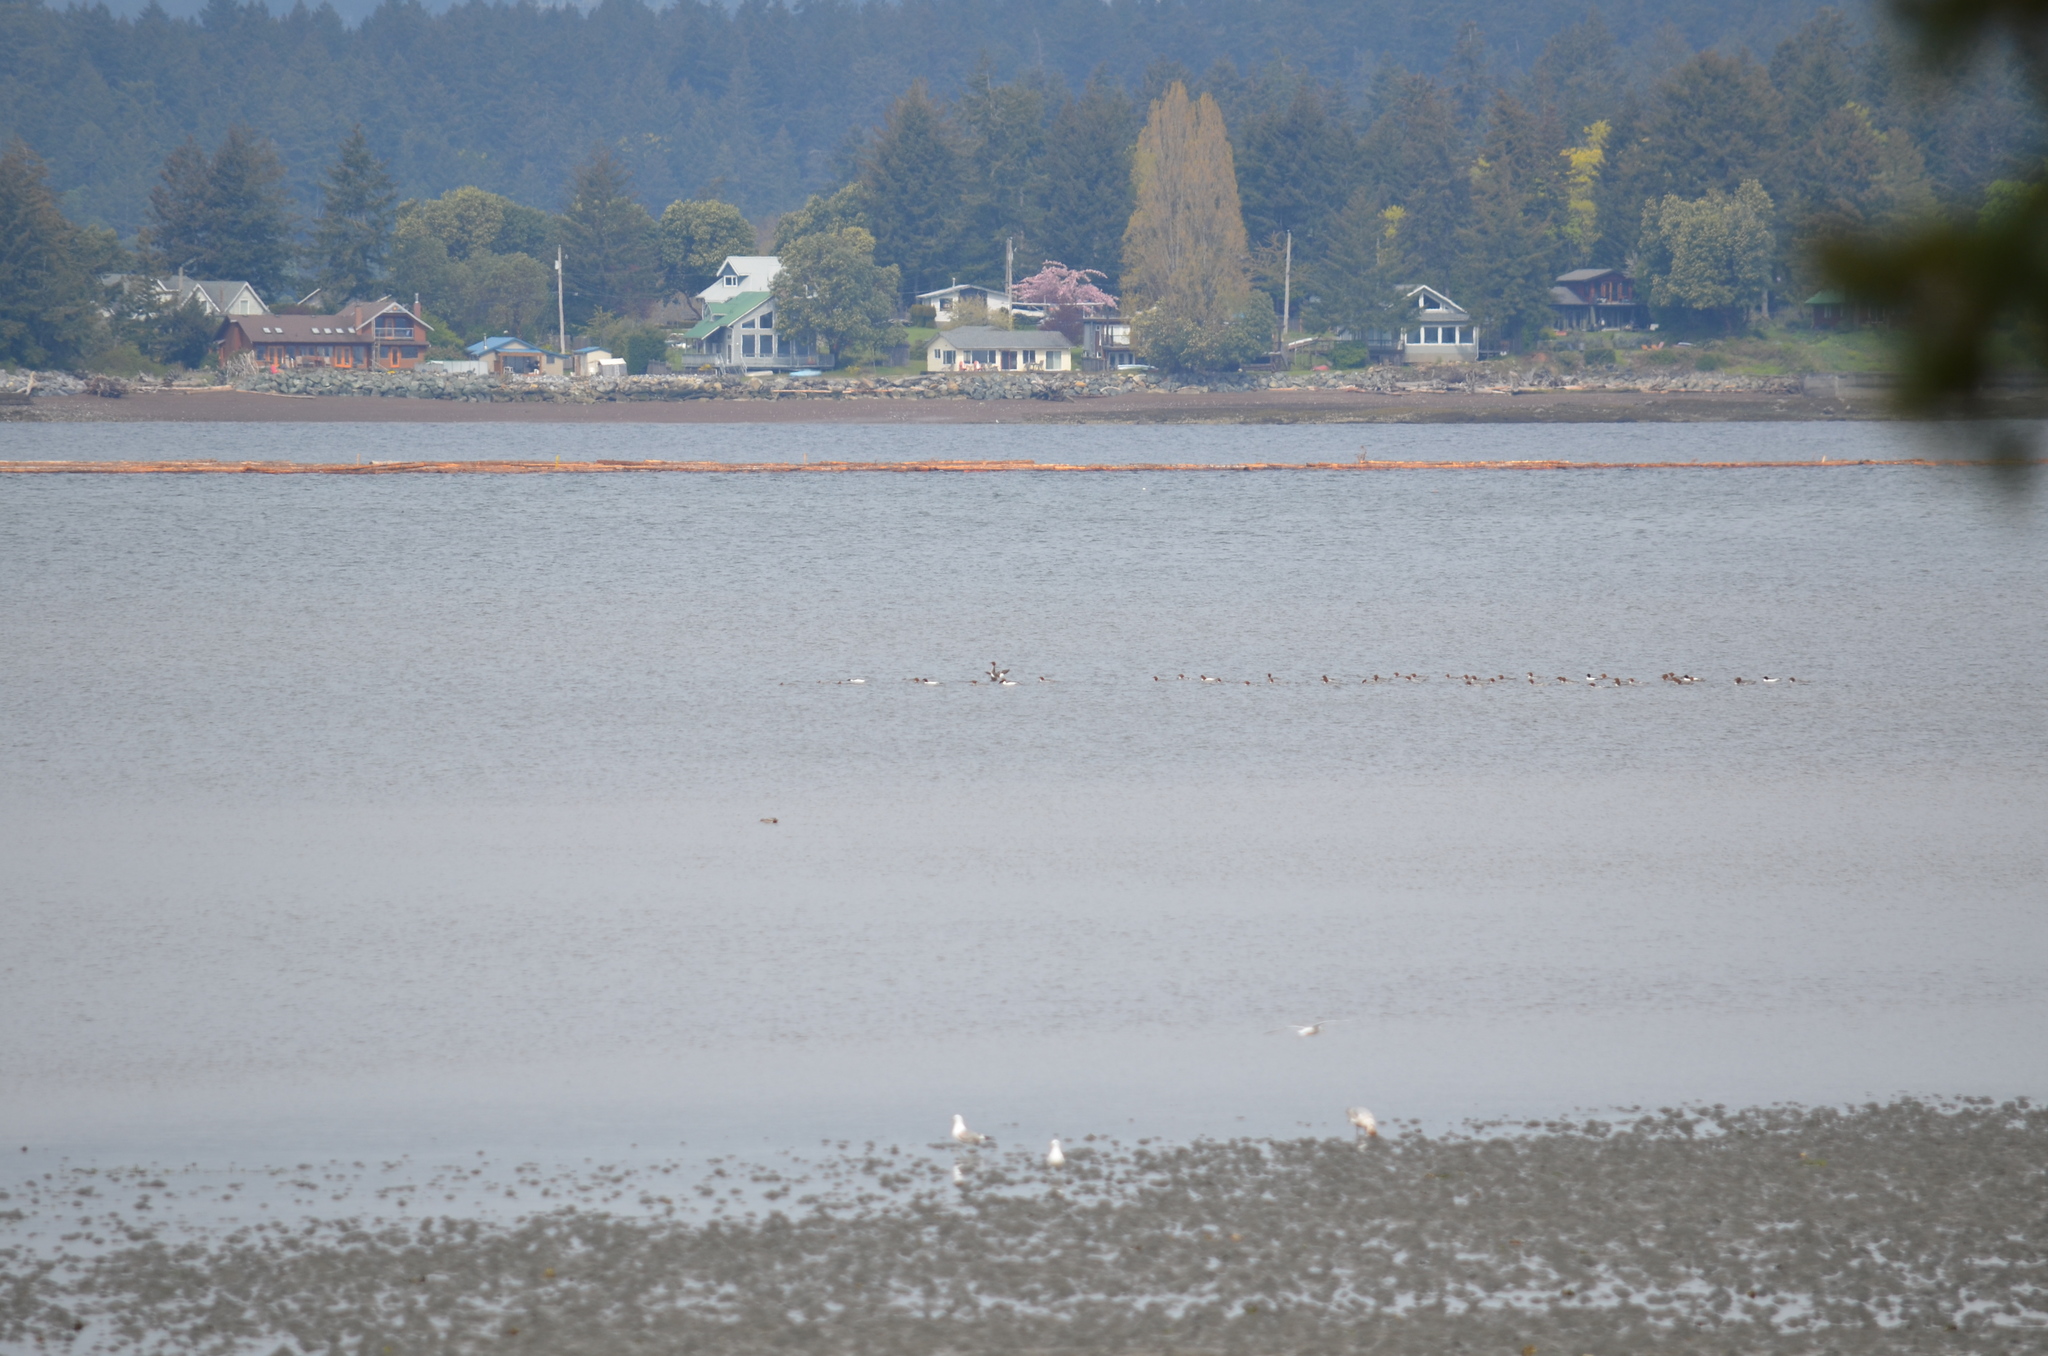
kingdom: Animalia
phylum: Chordata
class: Aves
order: Anseriformes
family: Anatidae
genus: Mergus
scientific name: Mergus merganser
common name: Common merganser
